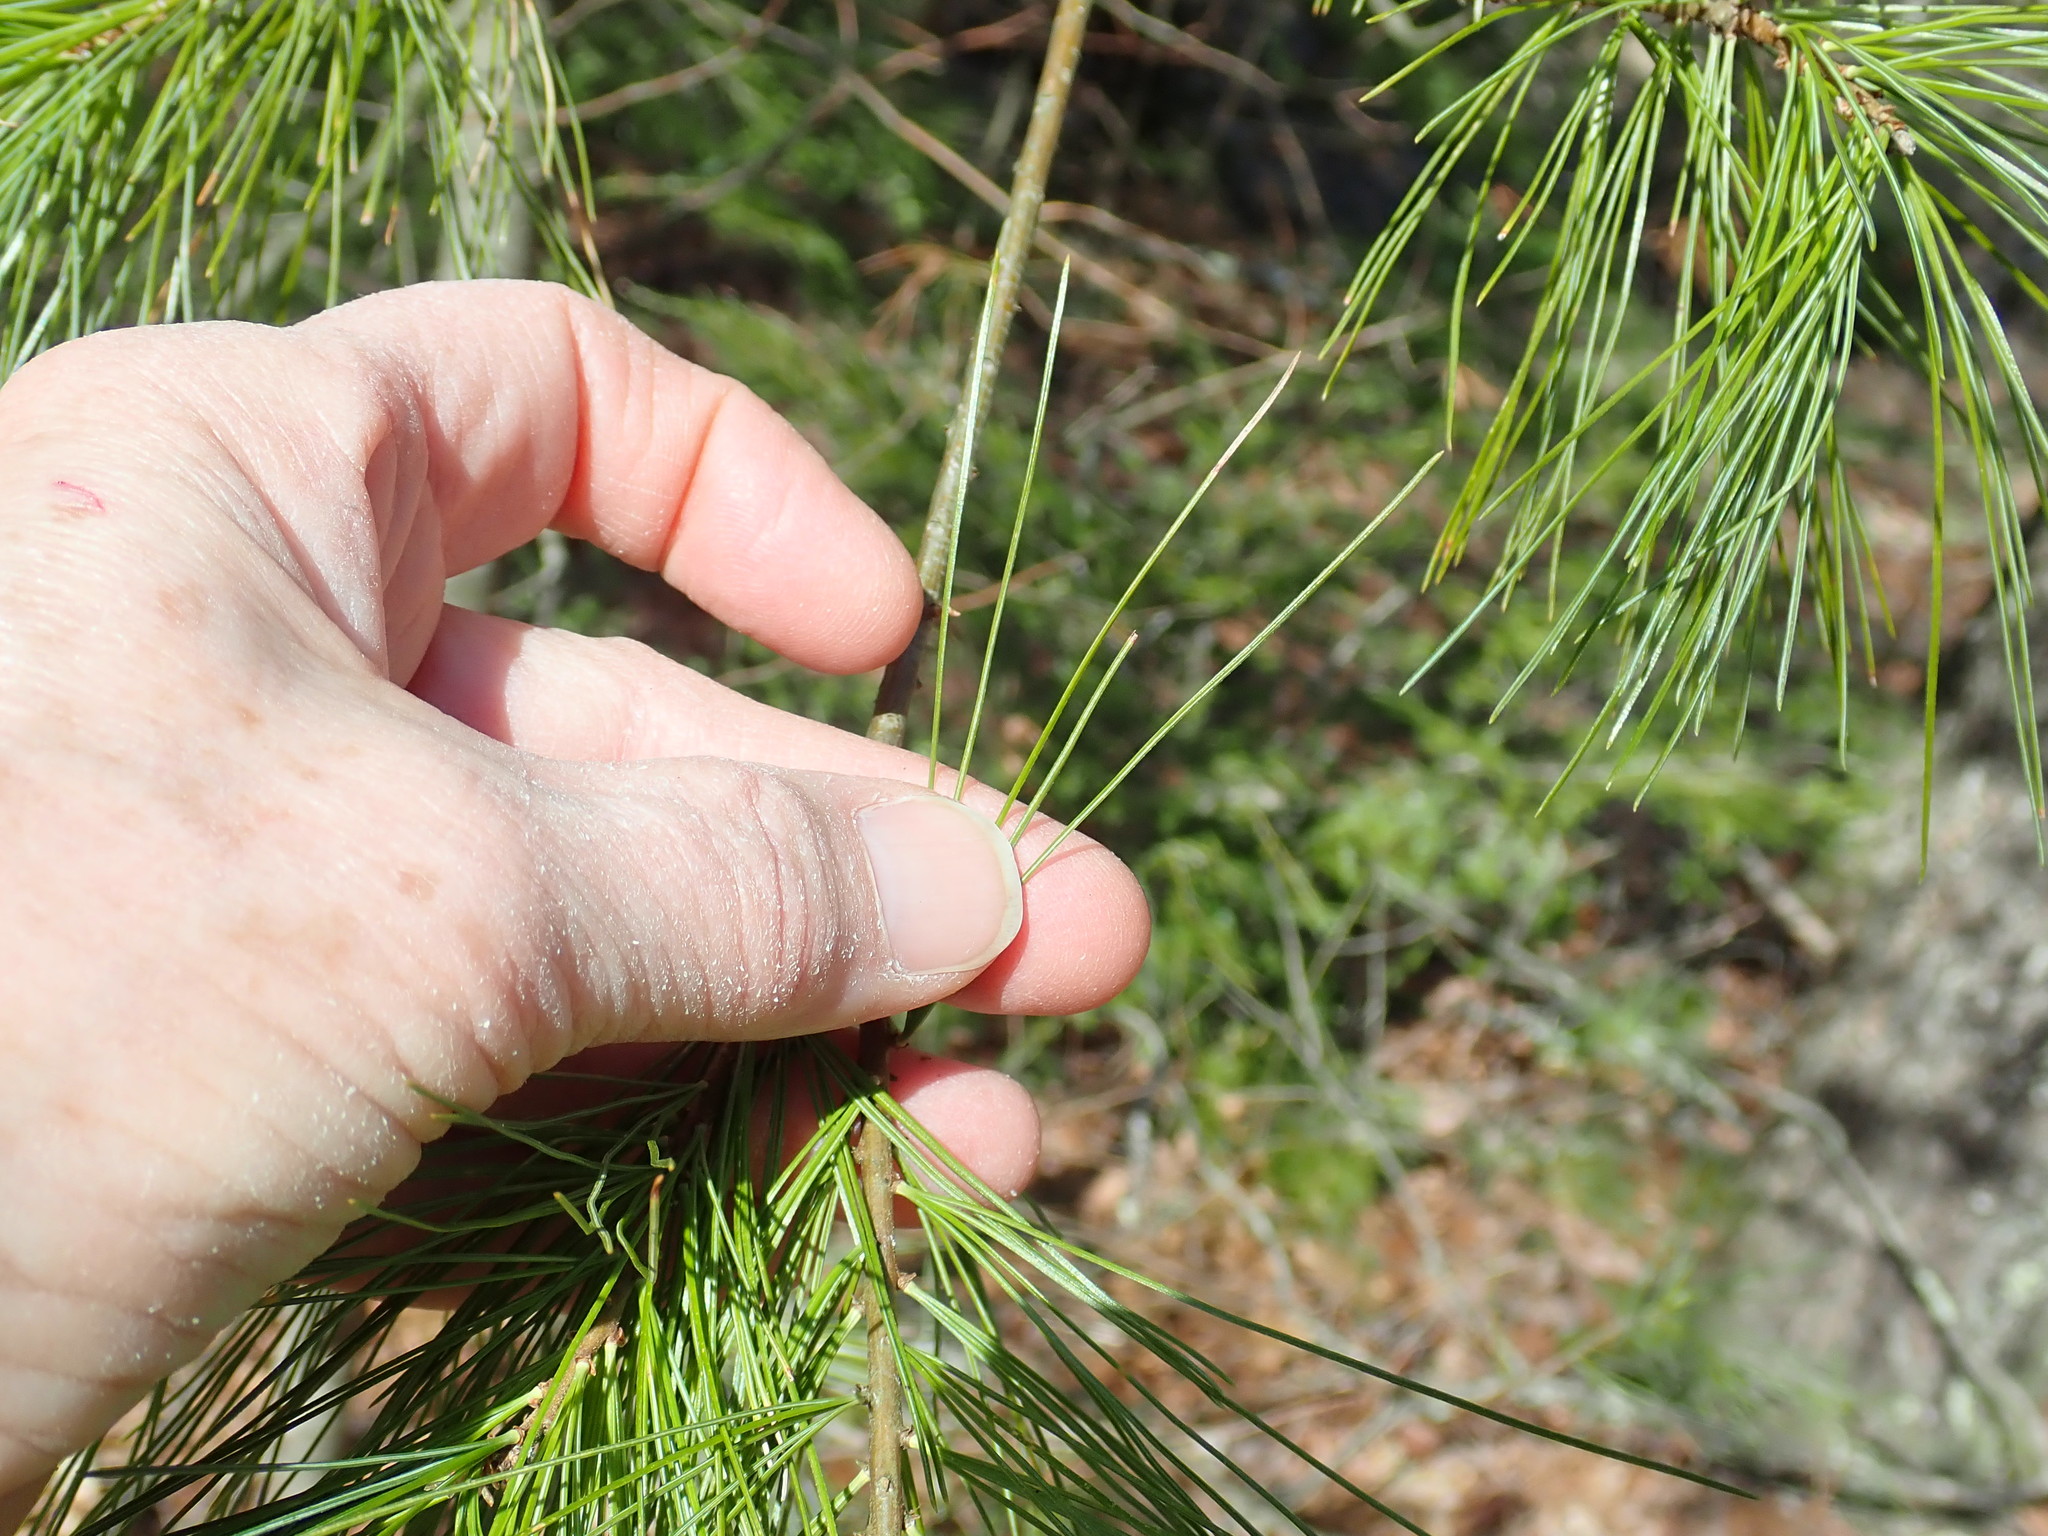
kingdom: Plantae
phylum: Tracheophyta
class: Pinopsida
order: Pinales
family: Pinaceae
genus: Pinus
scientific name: Pinus strobus
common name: Weymouth pine
